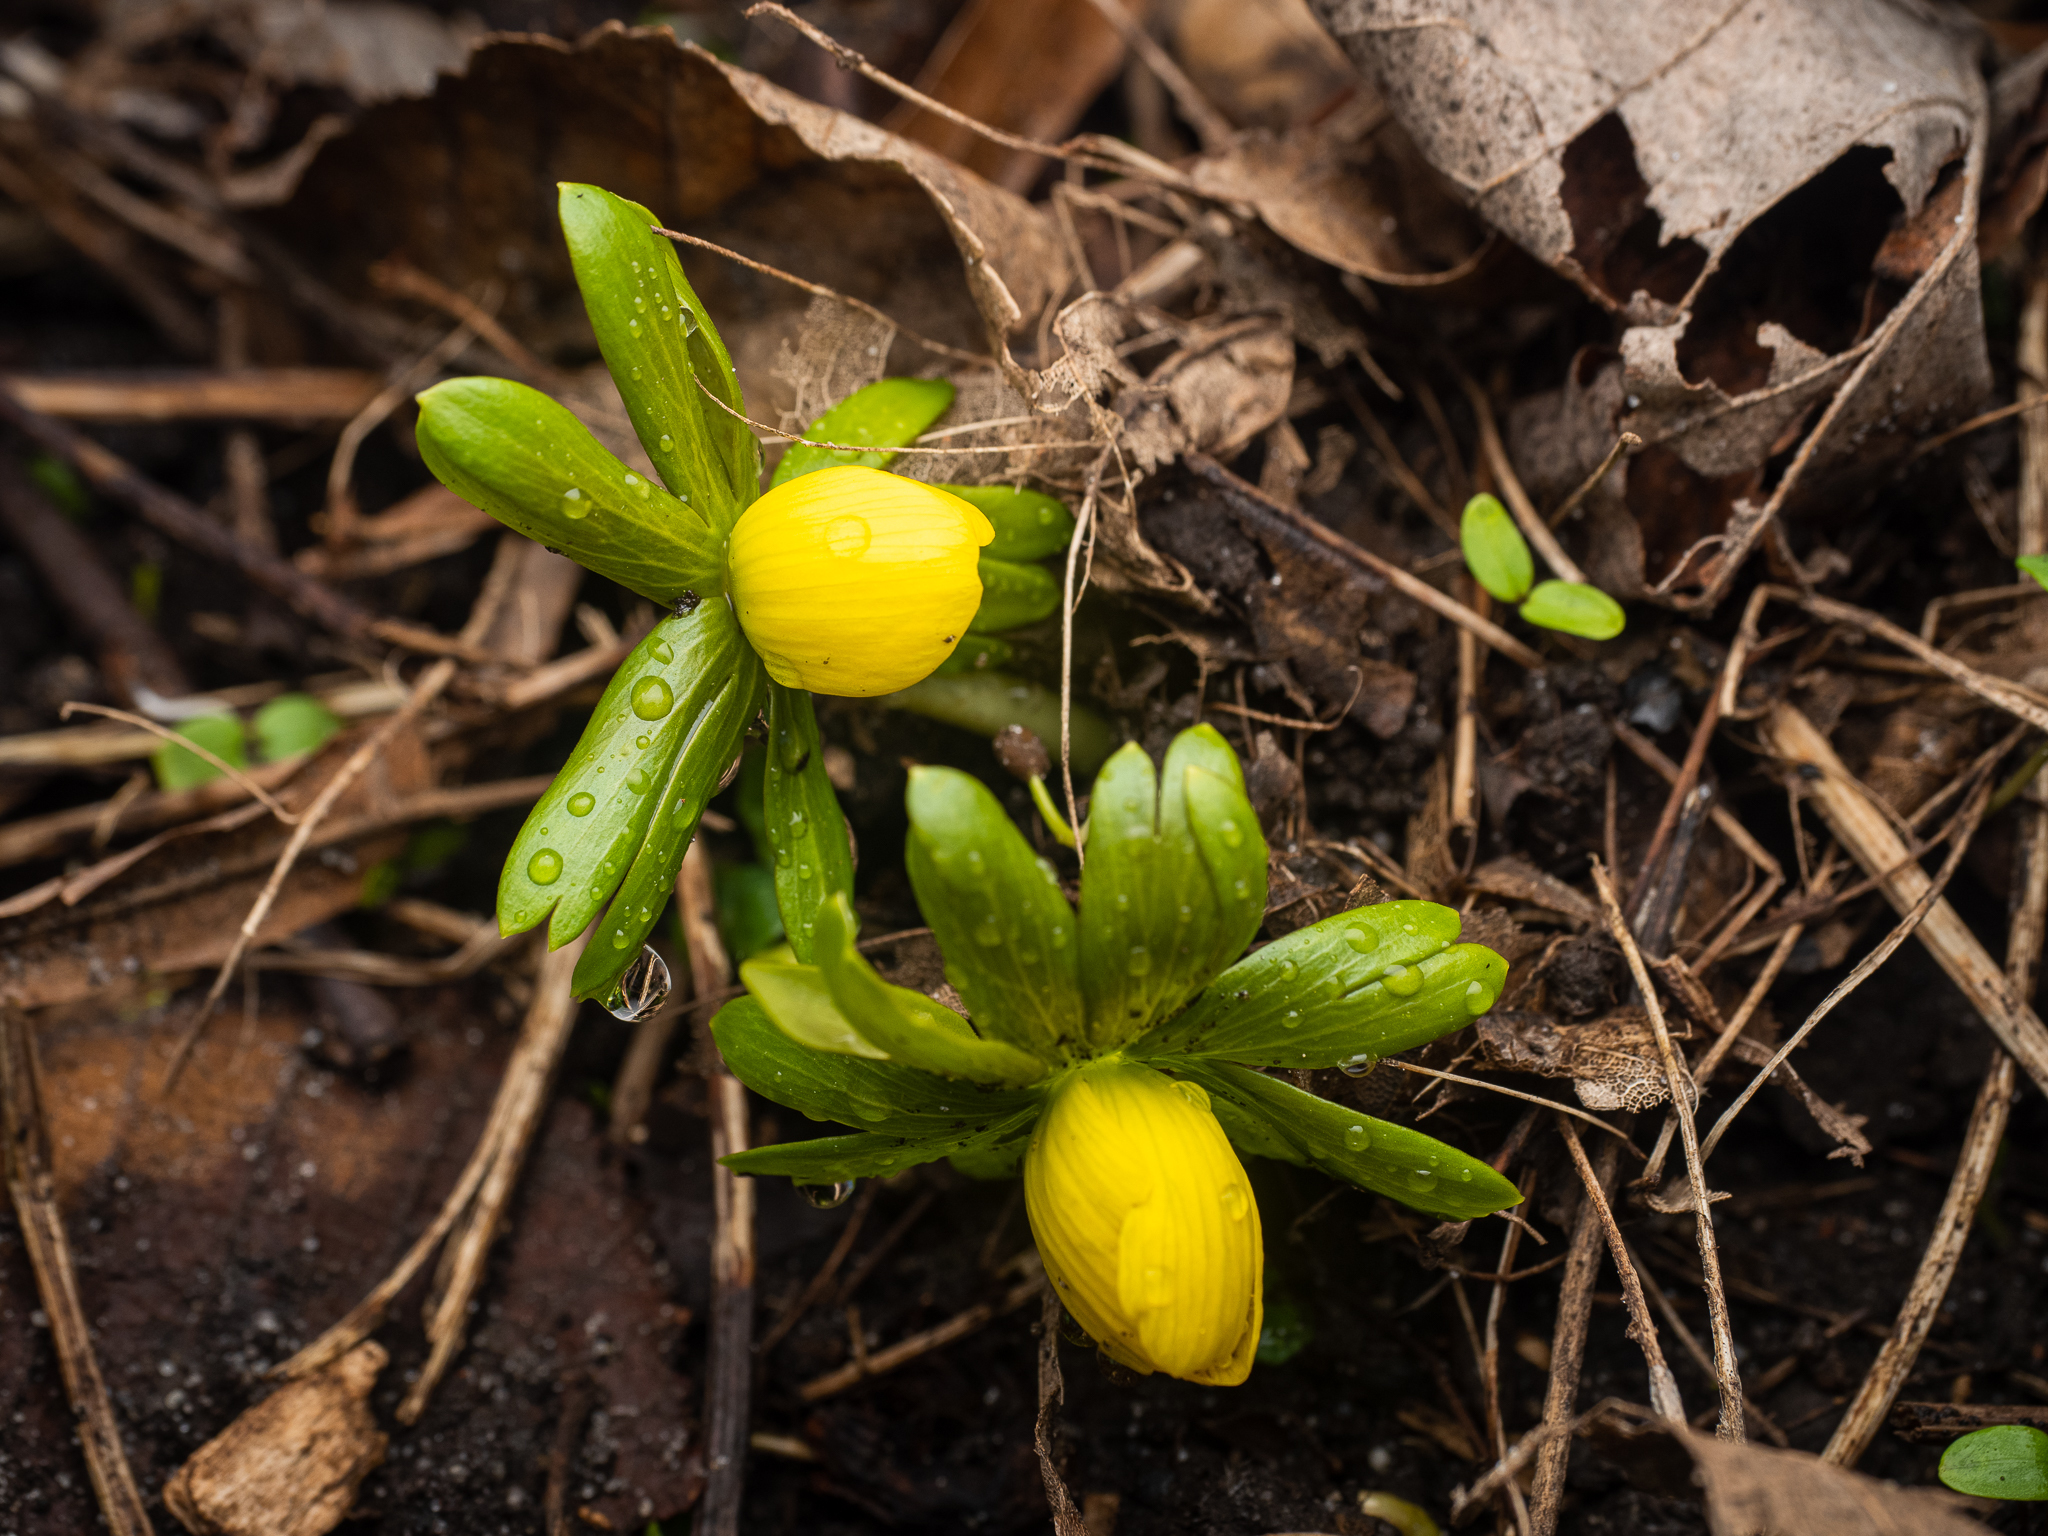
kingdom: Plantae
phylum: Tracheophyta
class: Magnoliopsida
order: Ranunculales
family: Ranunculaceae
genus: Eranthis
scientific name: Eranthis hyemalis
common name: Winter aconite
